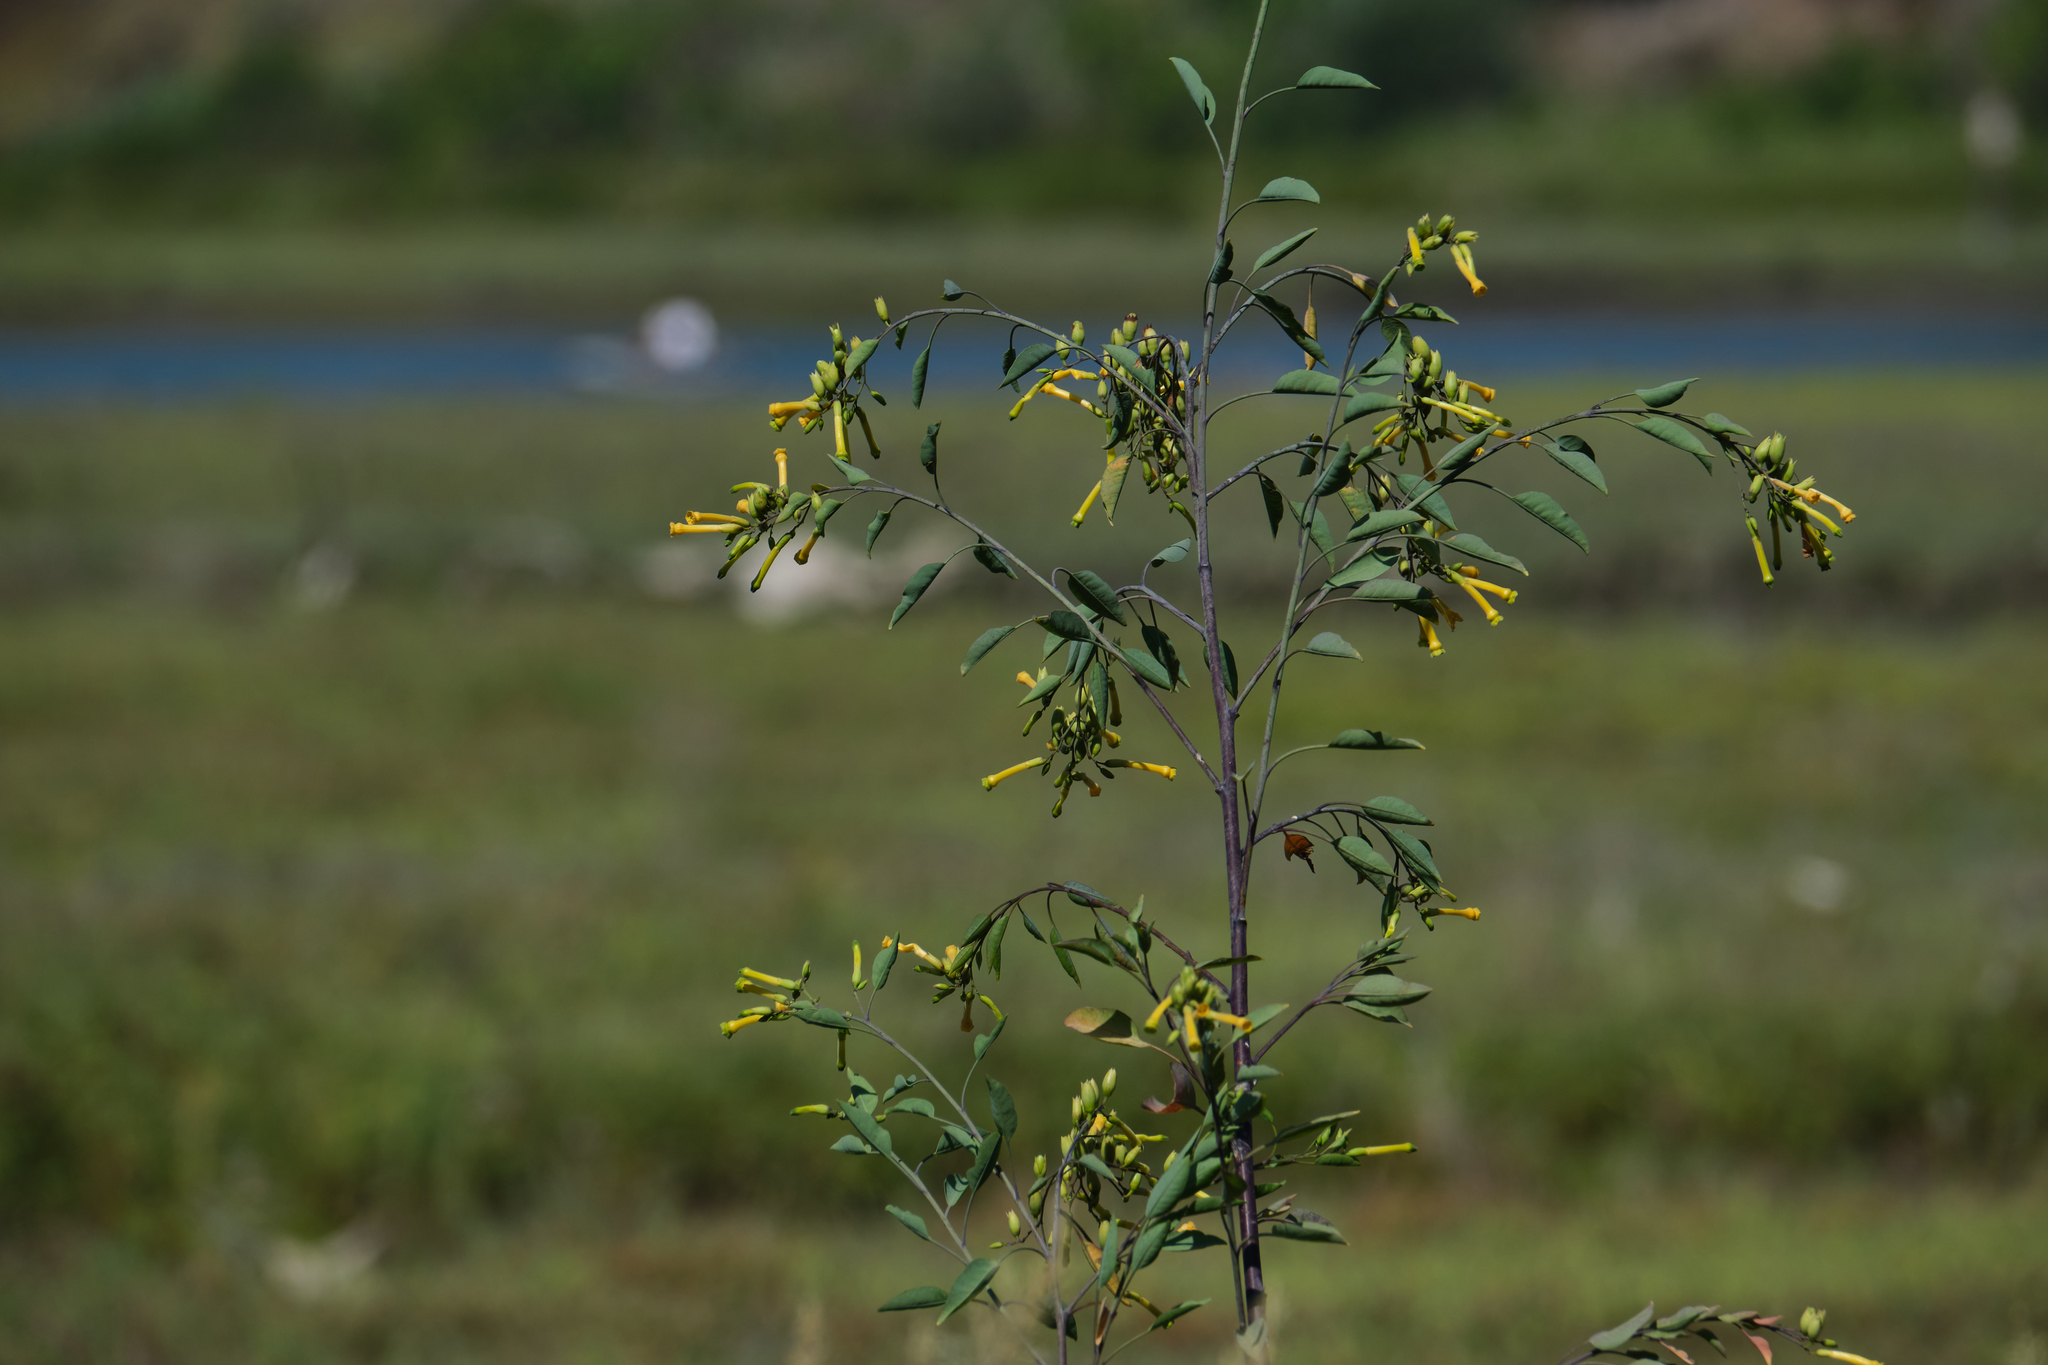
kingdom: Plantae
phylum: Tracheophyta
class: Magnoliopsida
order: Solanales
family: Solanaceae
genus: Nicotiana
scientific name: Nicotiana glauca
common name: Tree tobacco
